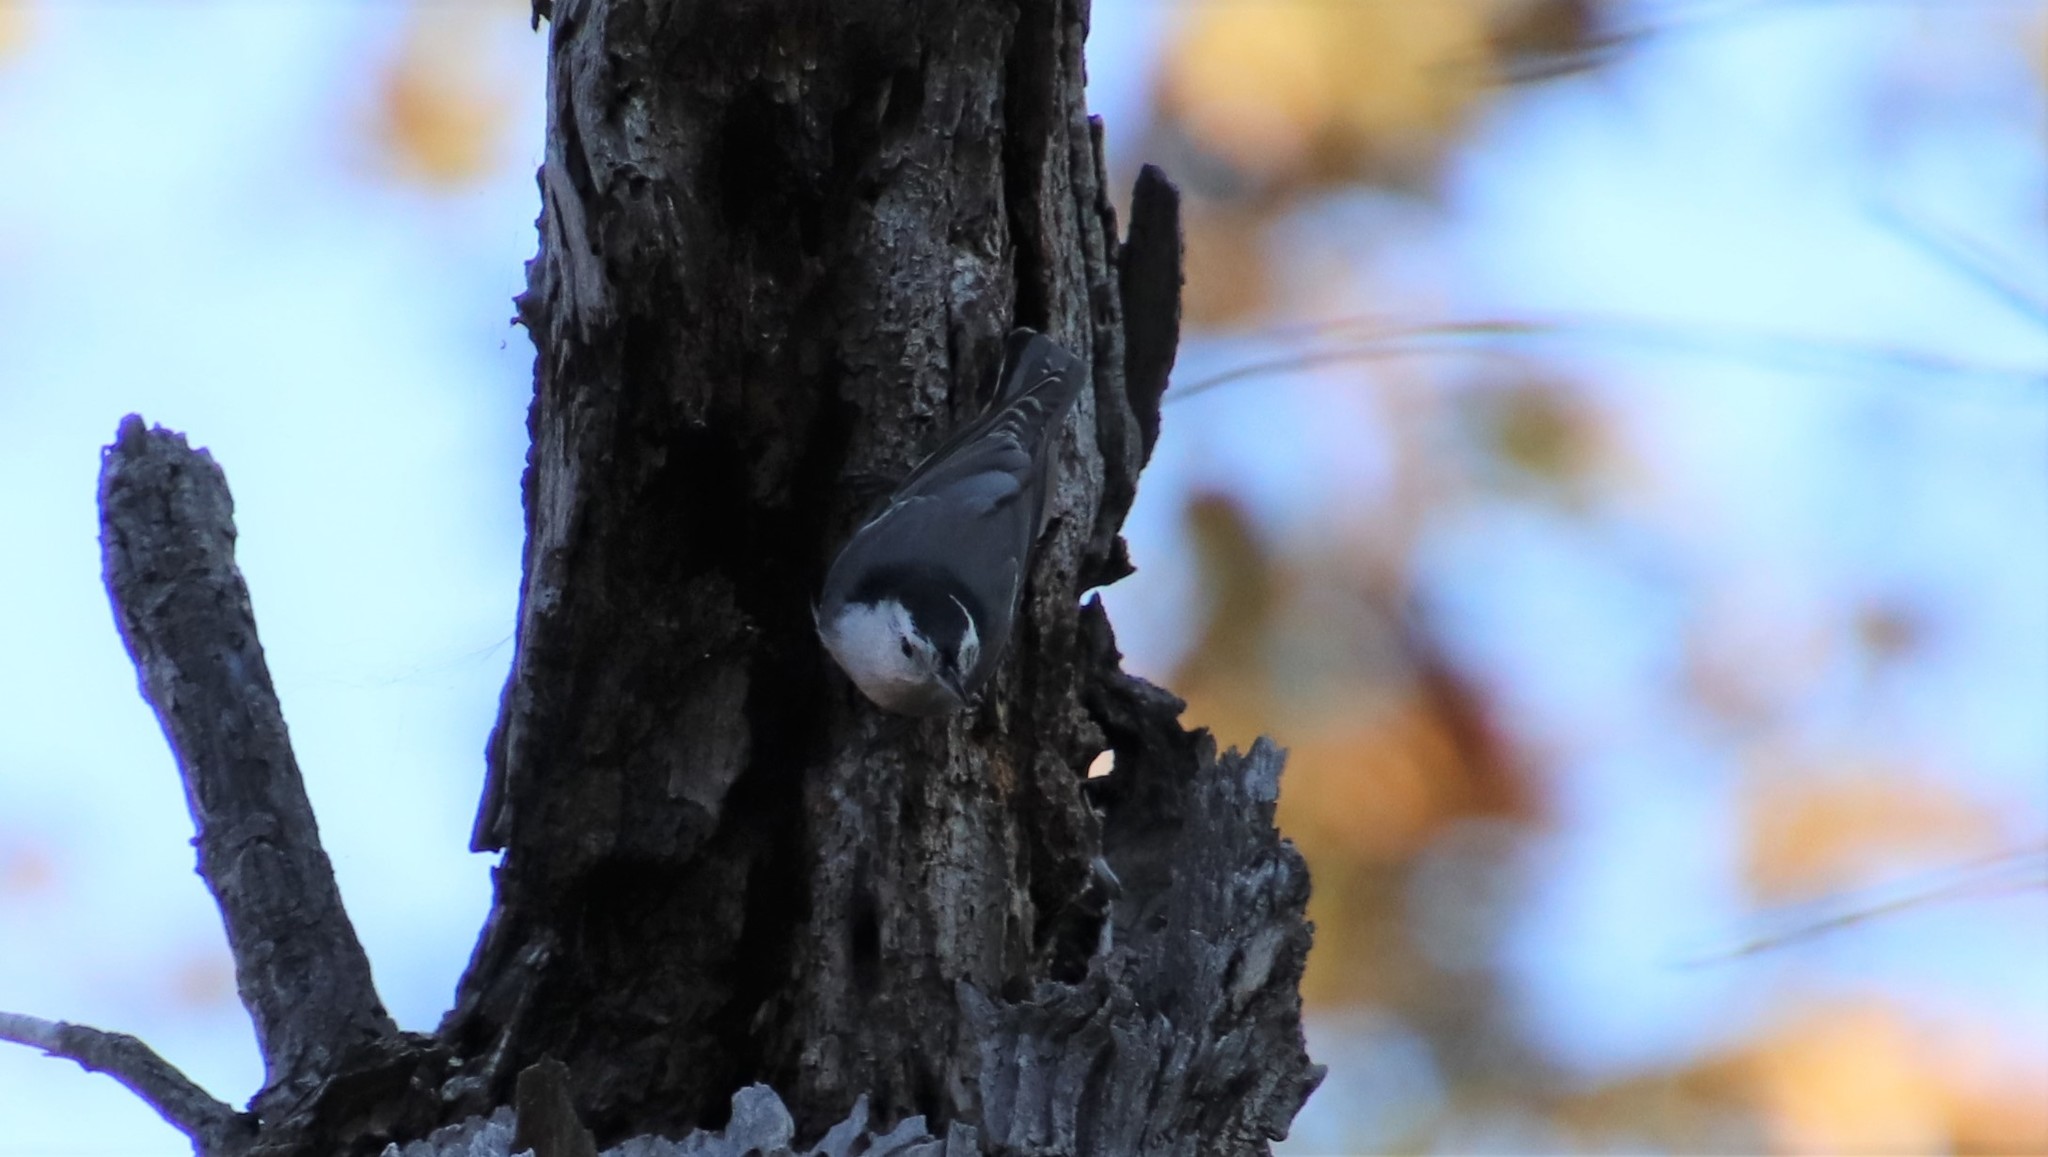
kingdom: Animalia
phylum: Chordata
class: Aves
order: Passeriformes
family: Sittidae
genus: Sitta
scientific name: Sitta carolinensis
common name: White-breasted nuthatch
